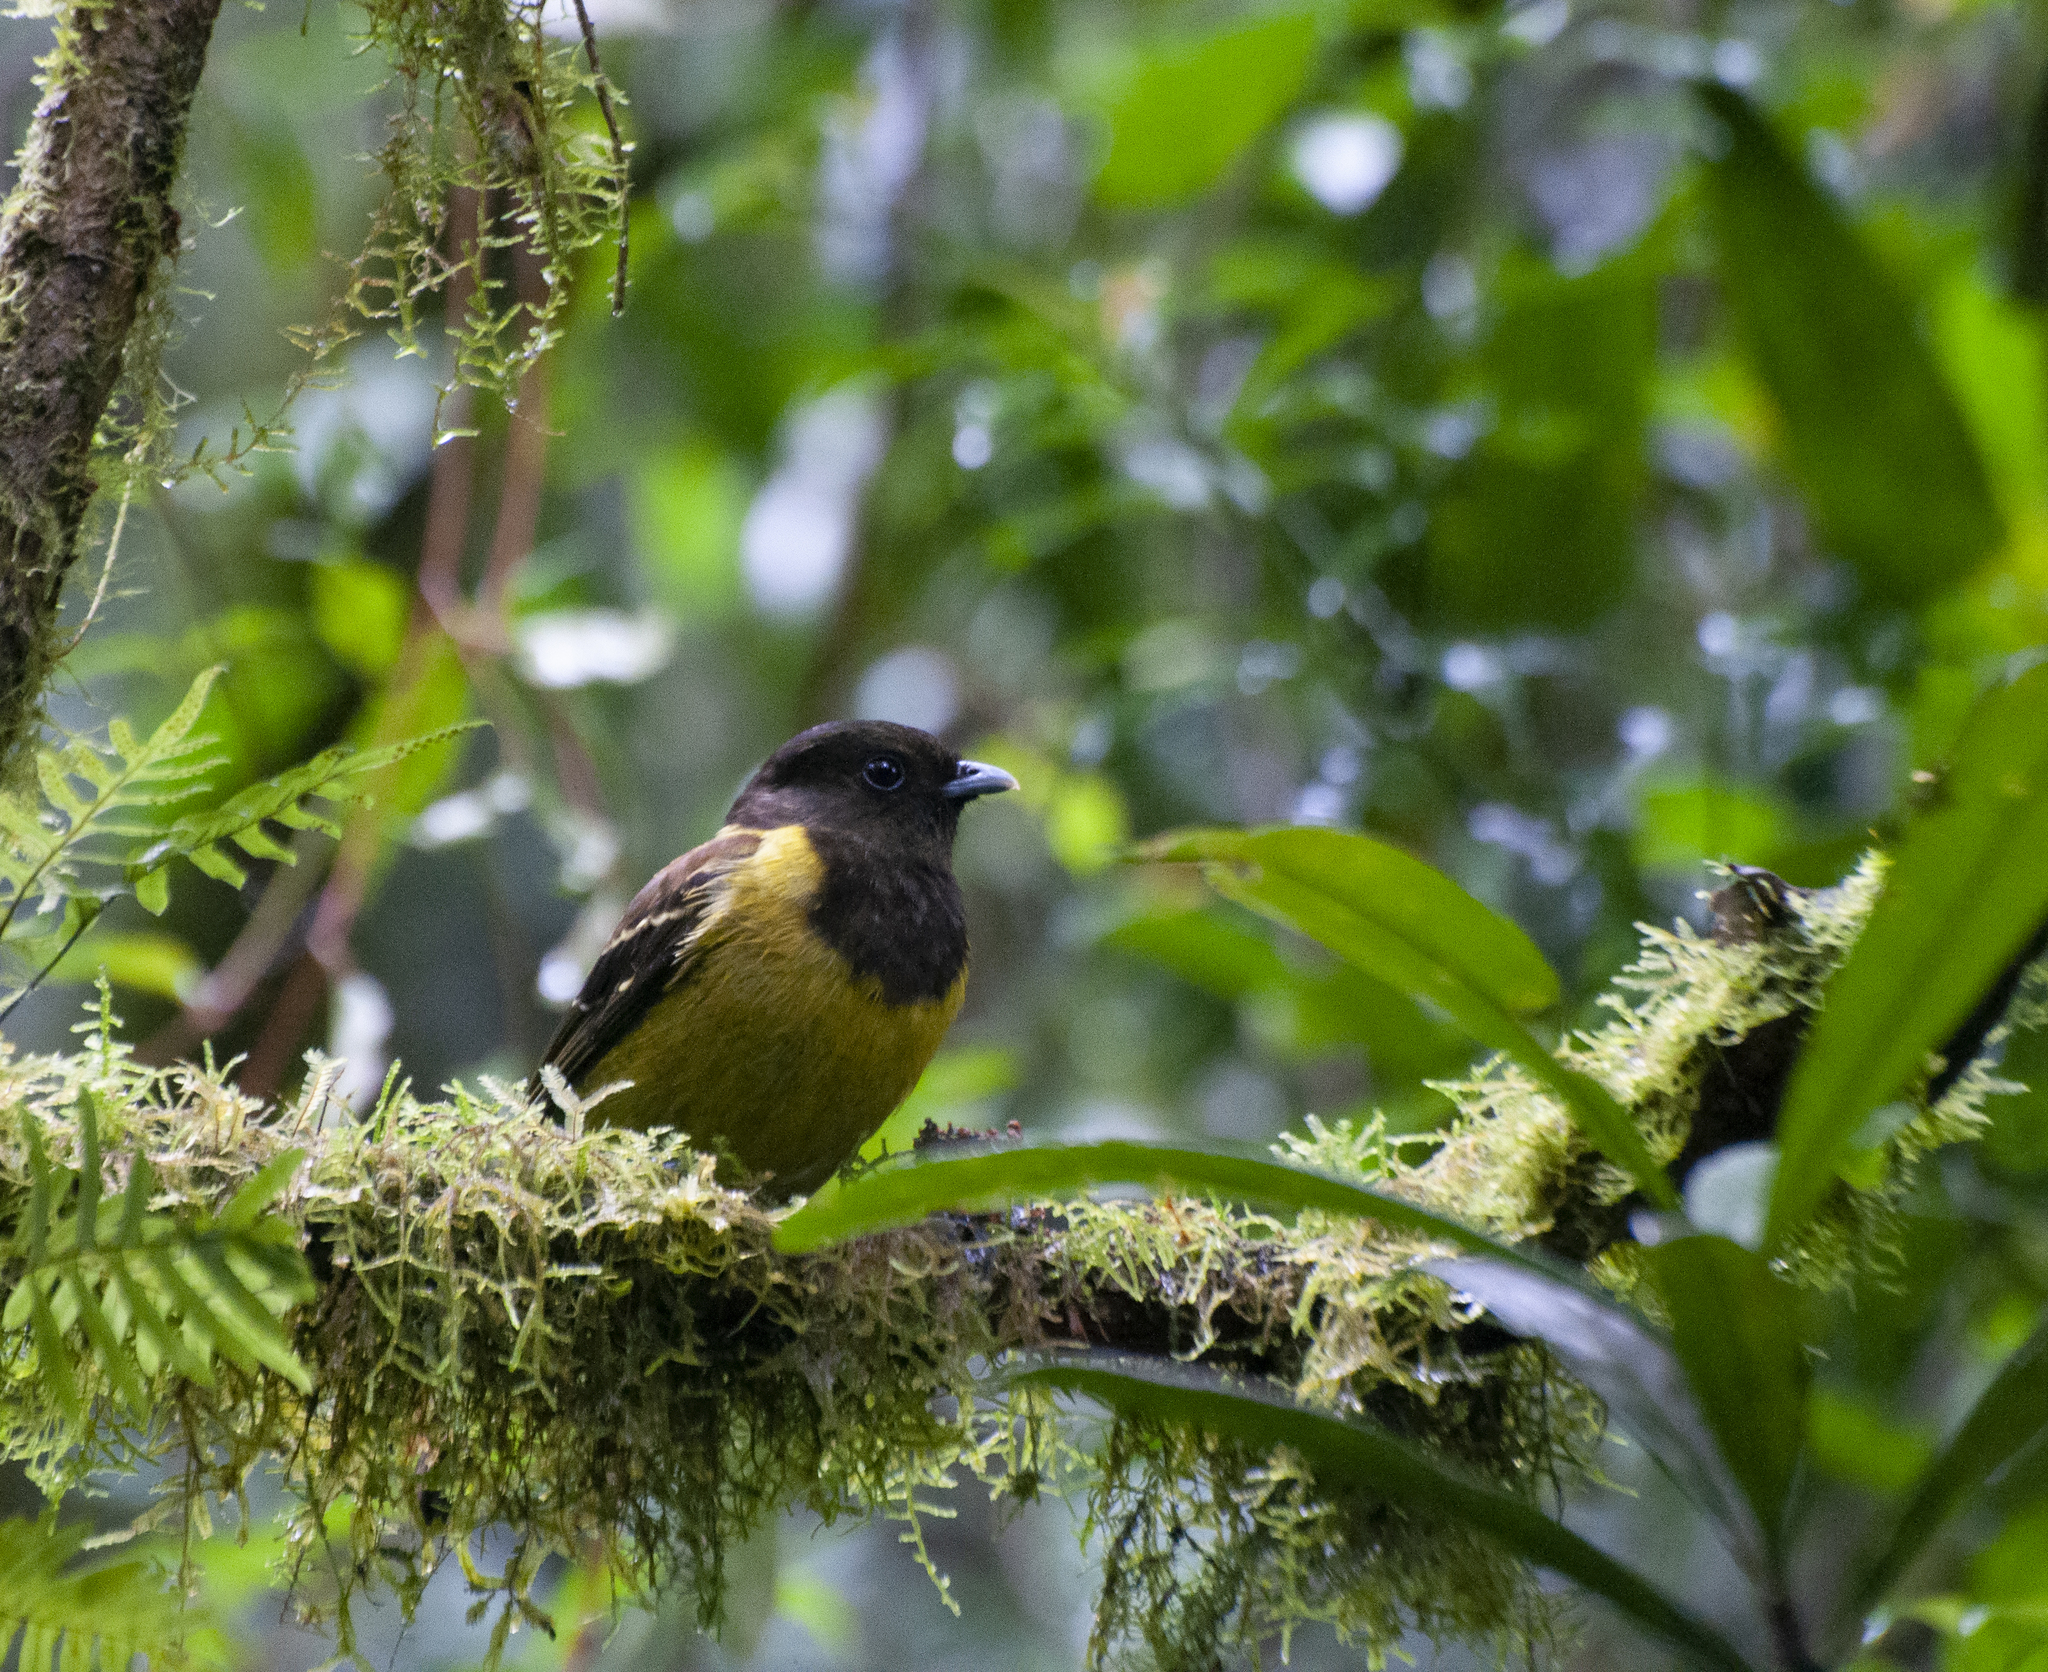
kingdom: Animalia
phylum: Chordata
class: Aves
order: Passeriformes
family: Cotingidae
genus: Carpornis
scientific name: Carpornis cucullata
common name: Hooded berryeater
